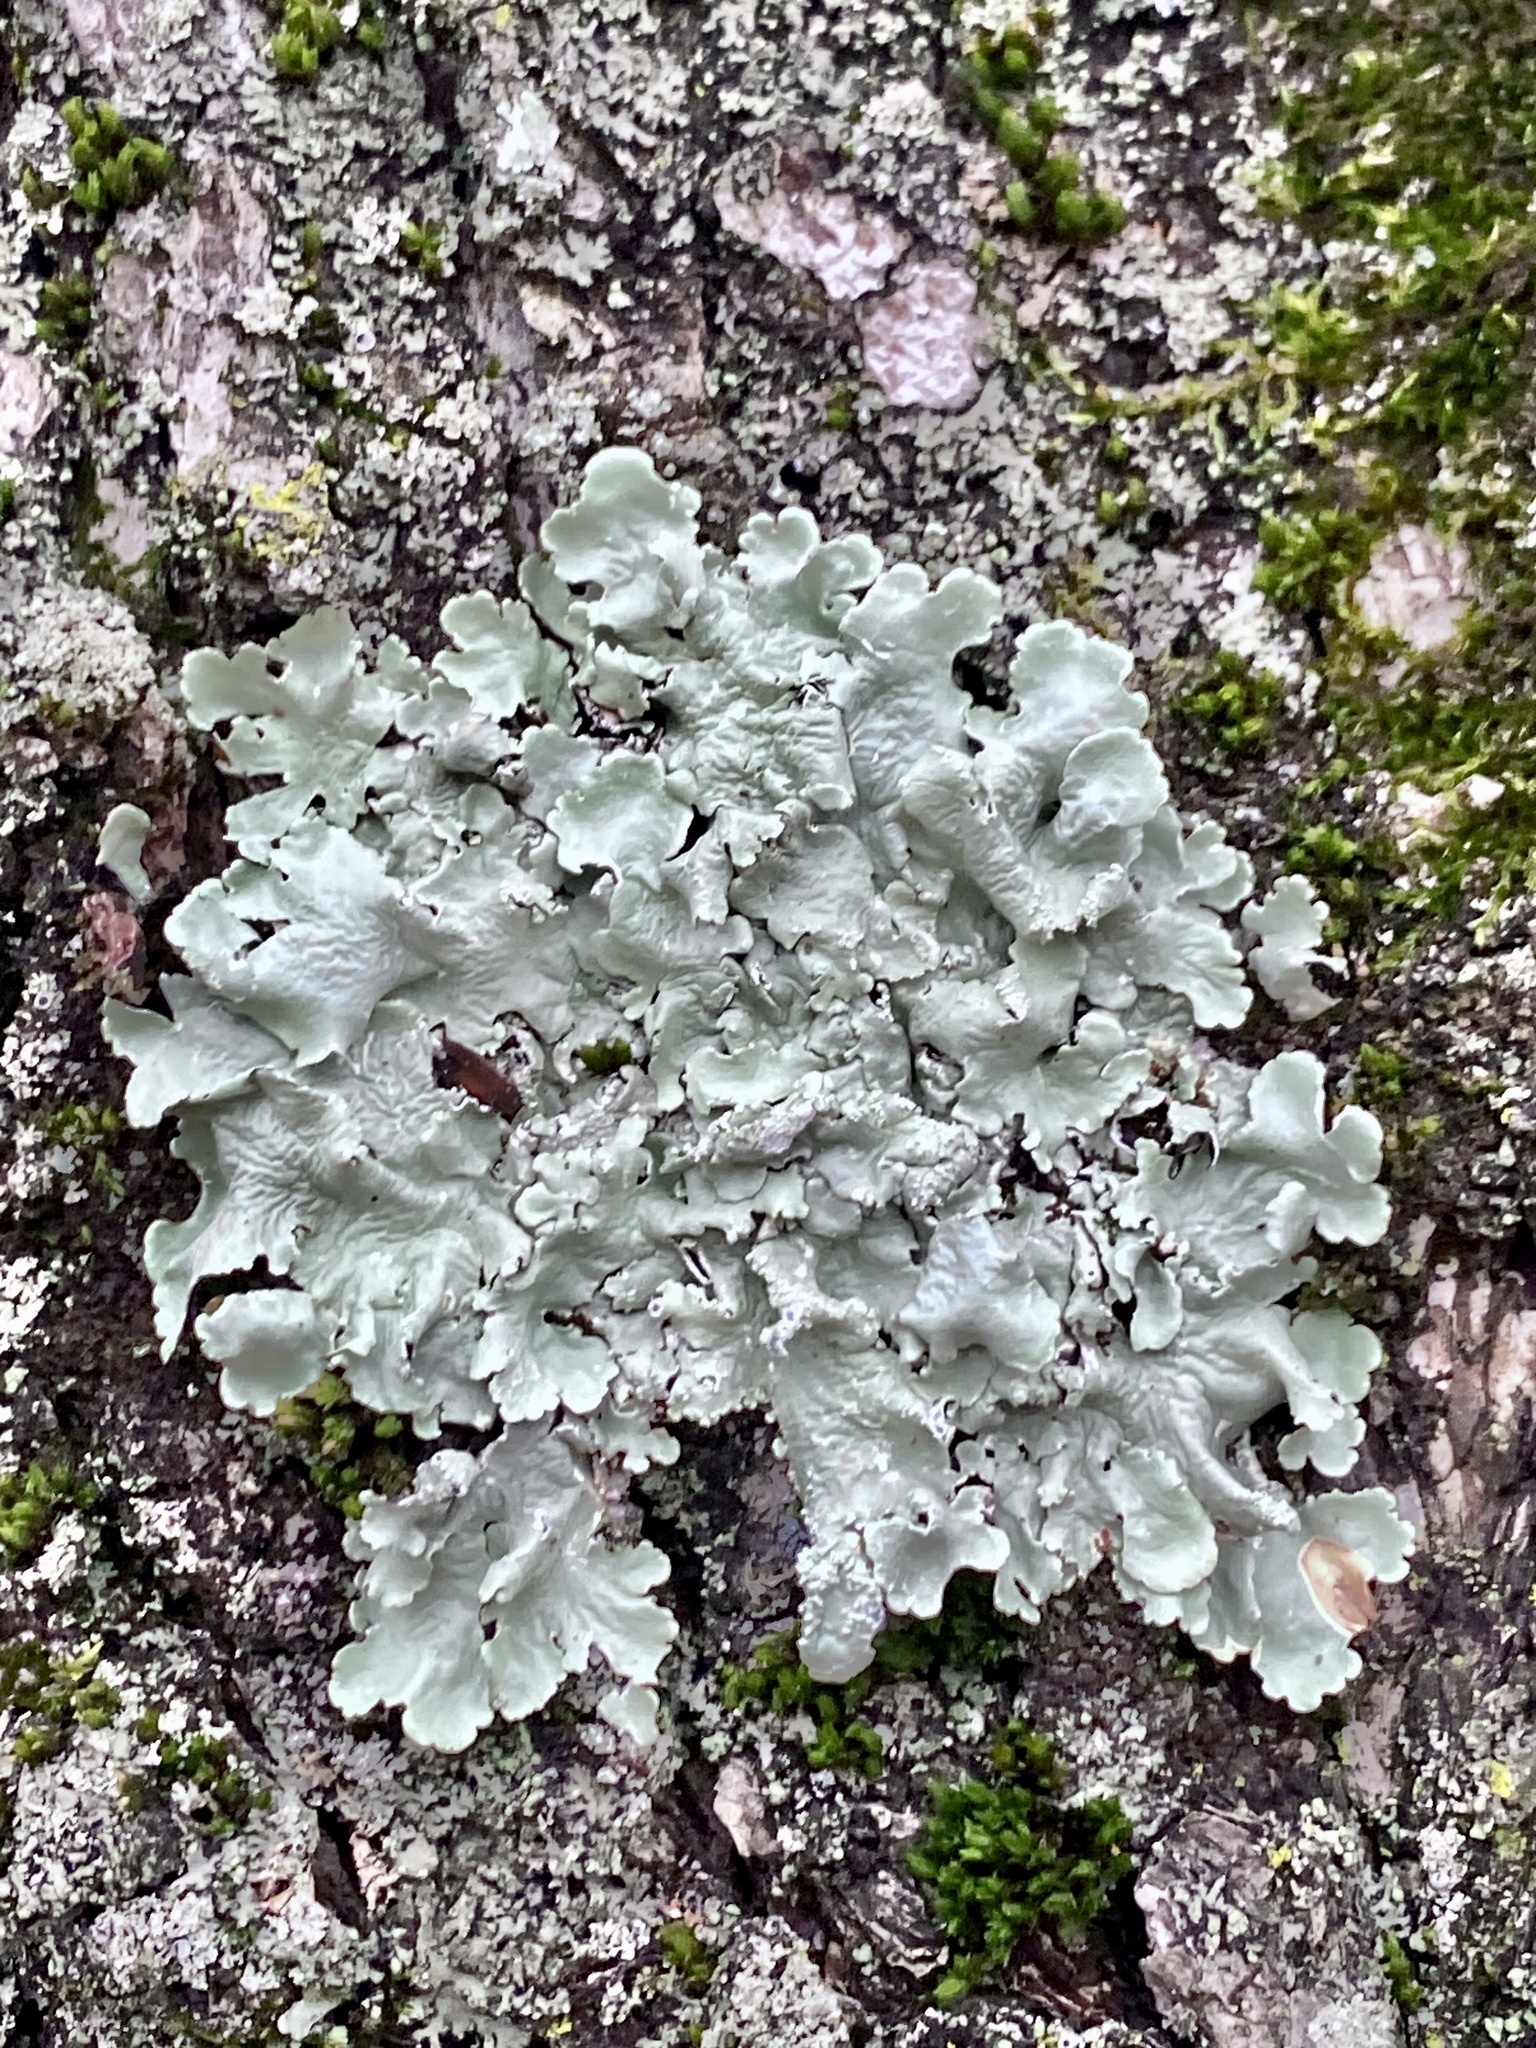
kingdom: Fungi
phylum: Ascomycota
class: Lecanoromycetes
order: Lecanorales
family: Parmeliaceae
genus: Flavoparmelia
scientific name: Flavoparmelia caperata
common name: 40-mile per hour lichen
